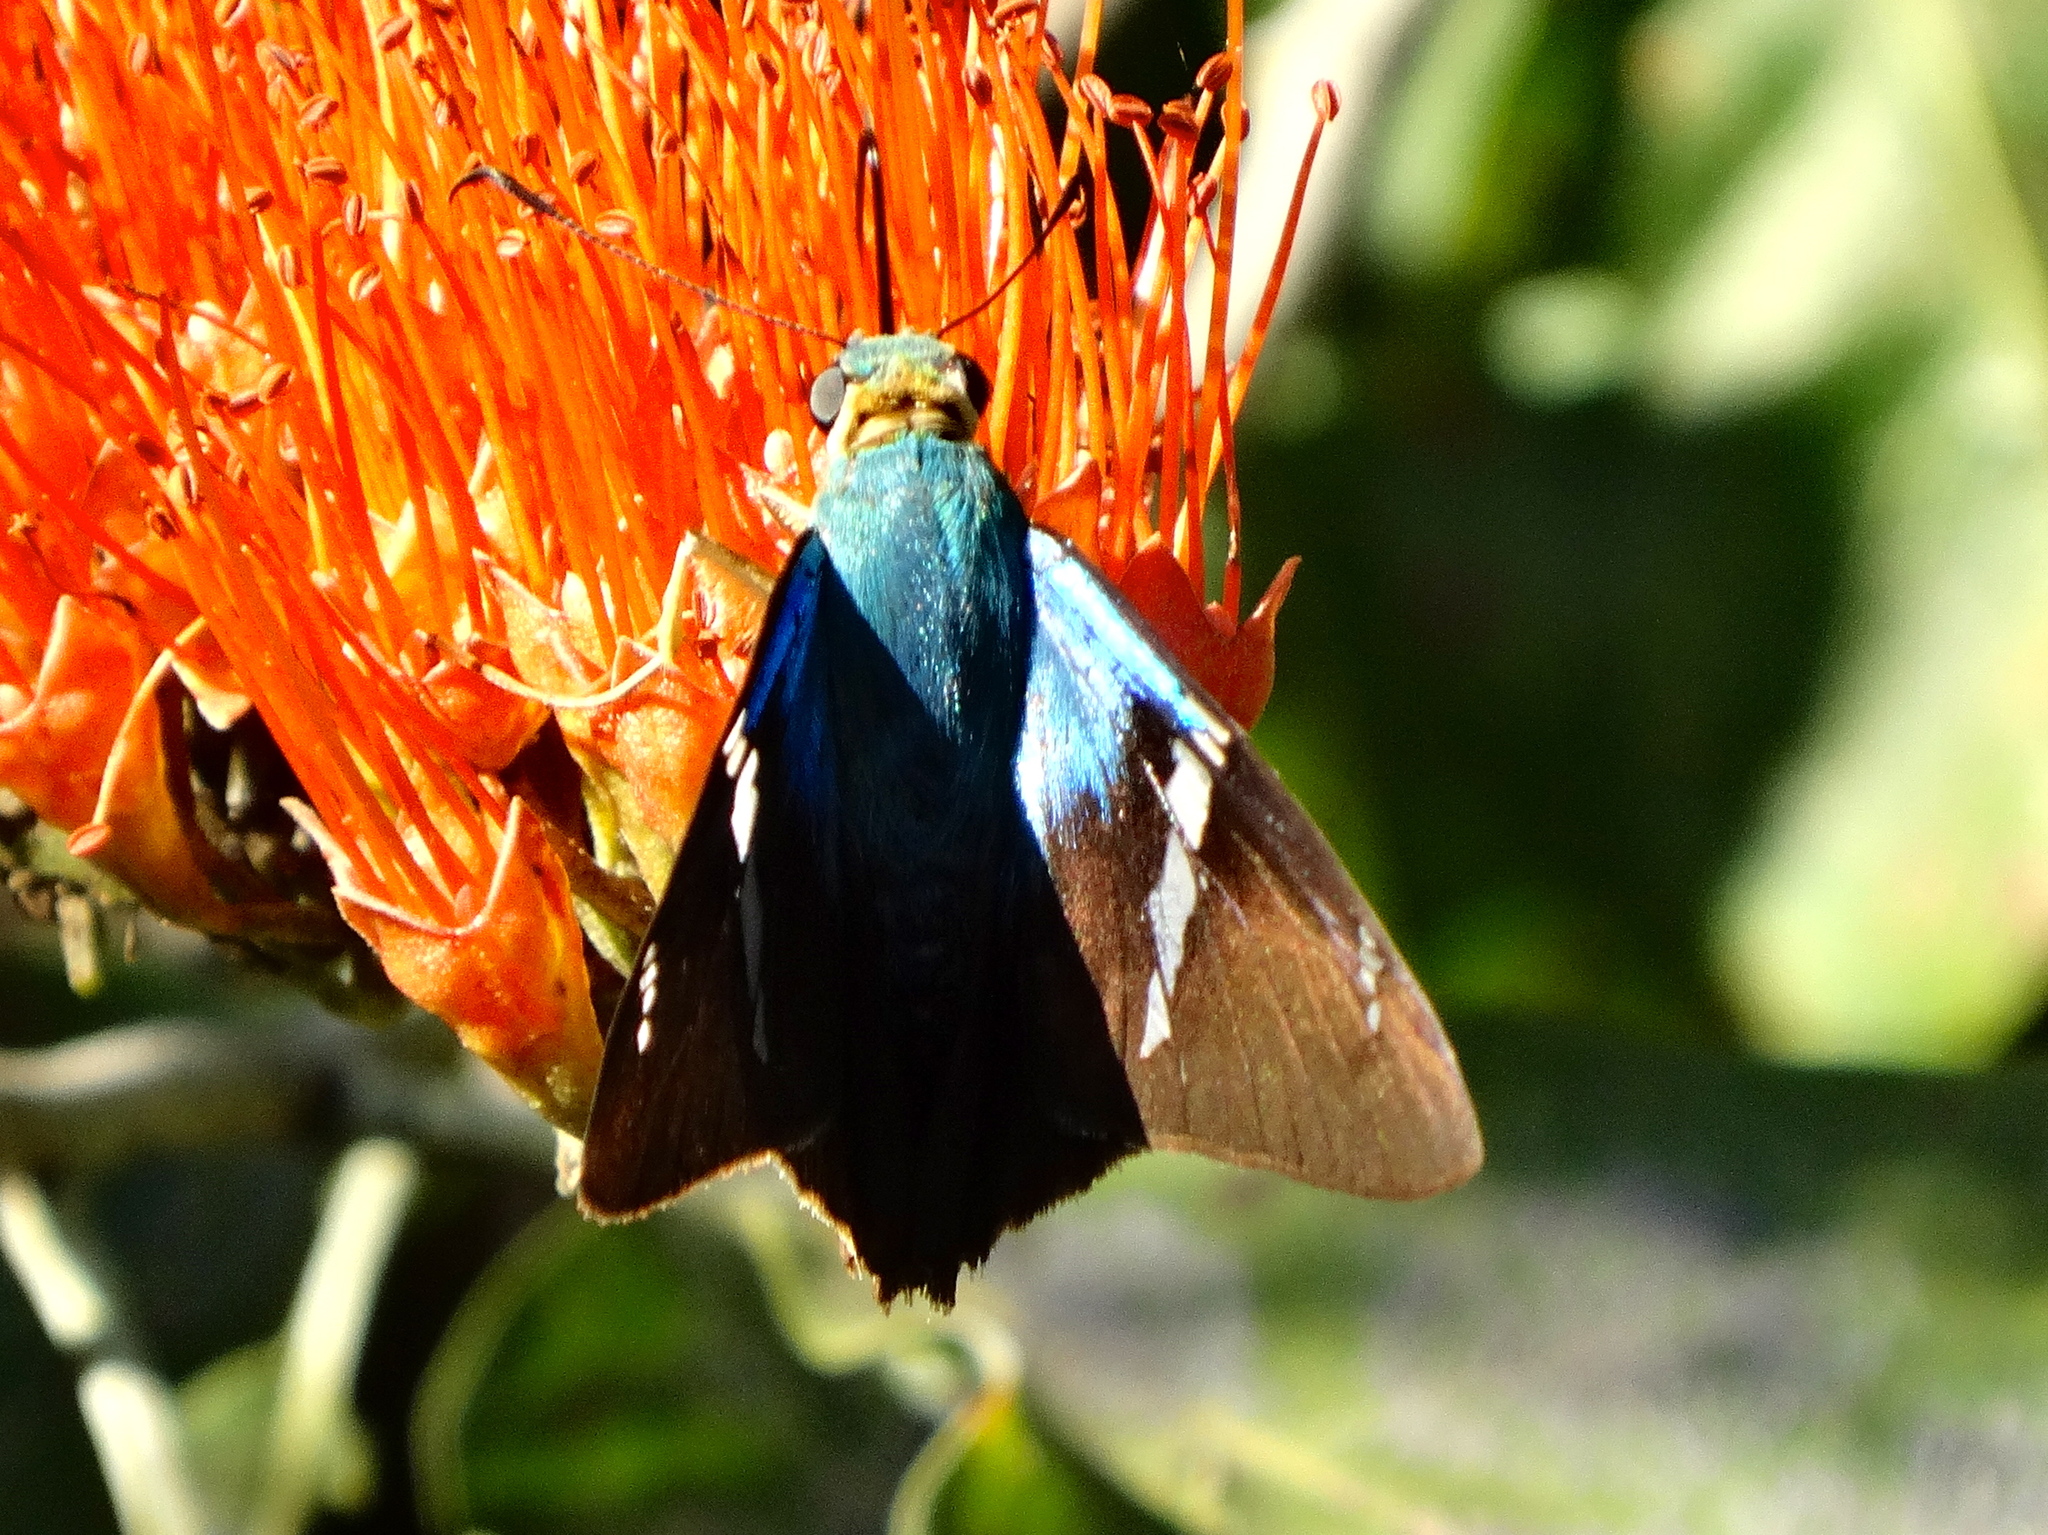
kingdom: Animalia
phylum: Arthropoda
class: Insecta
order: Lepidoptera
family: Hesperiidae
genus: Astraptes
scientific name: Astraptes
